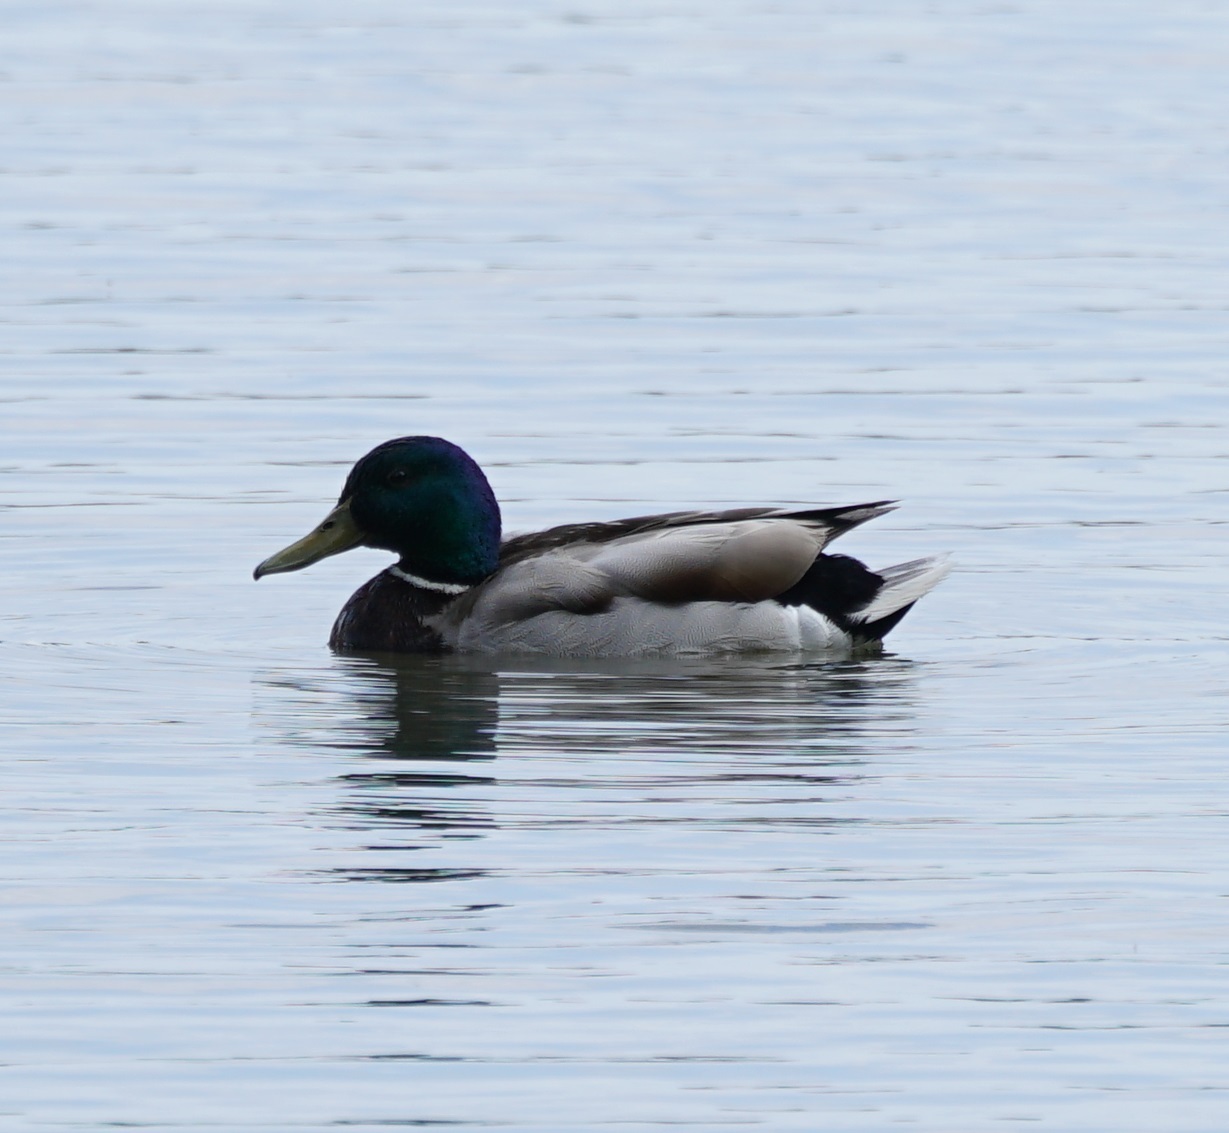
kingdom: Animalia
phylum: Chordata
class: Aves
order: Anseriformes
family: Anatidae
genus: Anas
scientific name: Anas platyrhynchos
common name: Mallard
